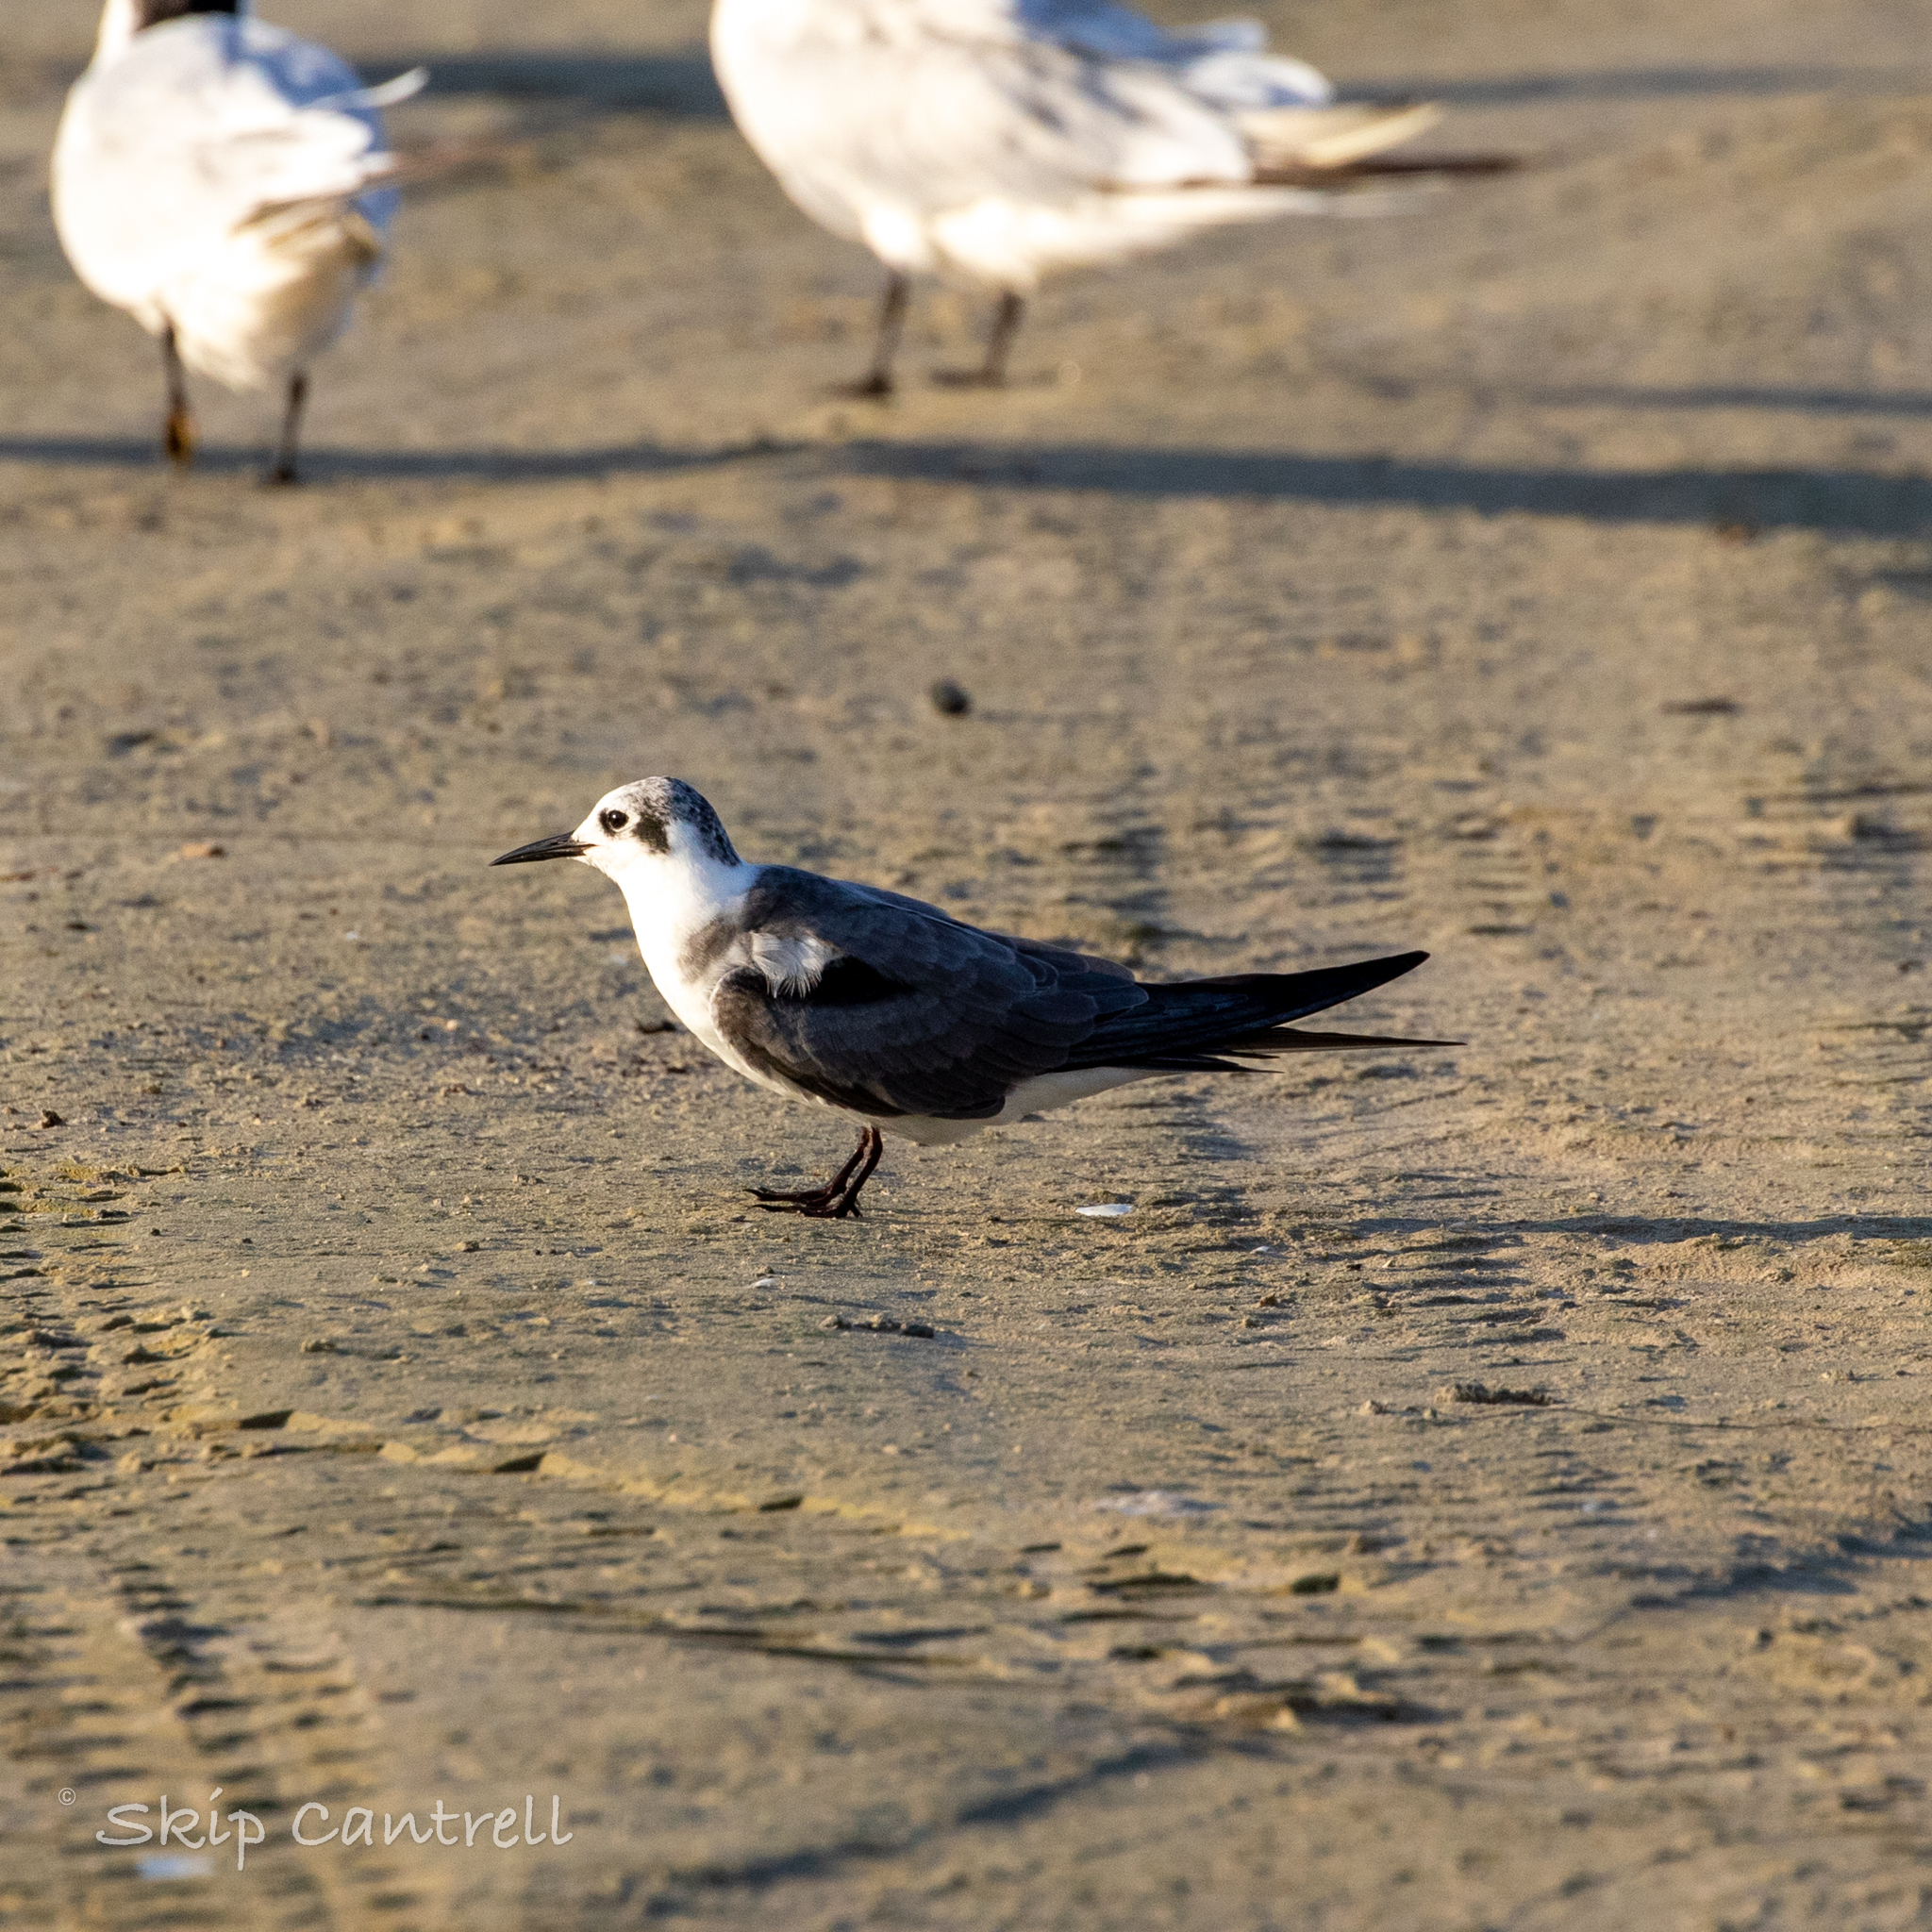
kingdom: Animalia
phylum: Chordata
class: Aves
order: Charadriiformes
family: Laridae
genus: Chlidonias
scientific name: Chlidonias niger
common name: Black tern
